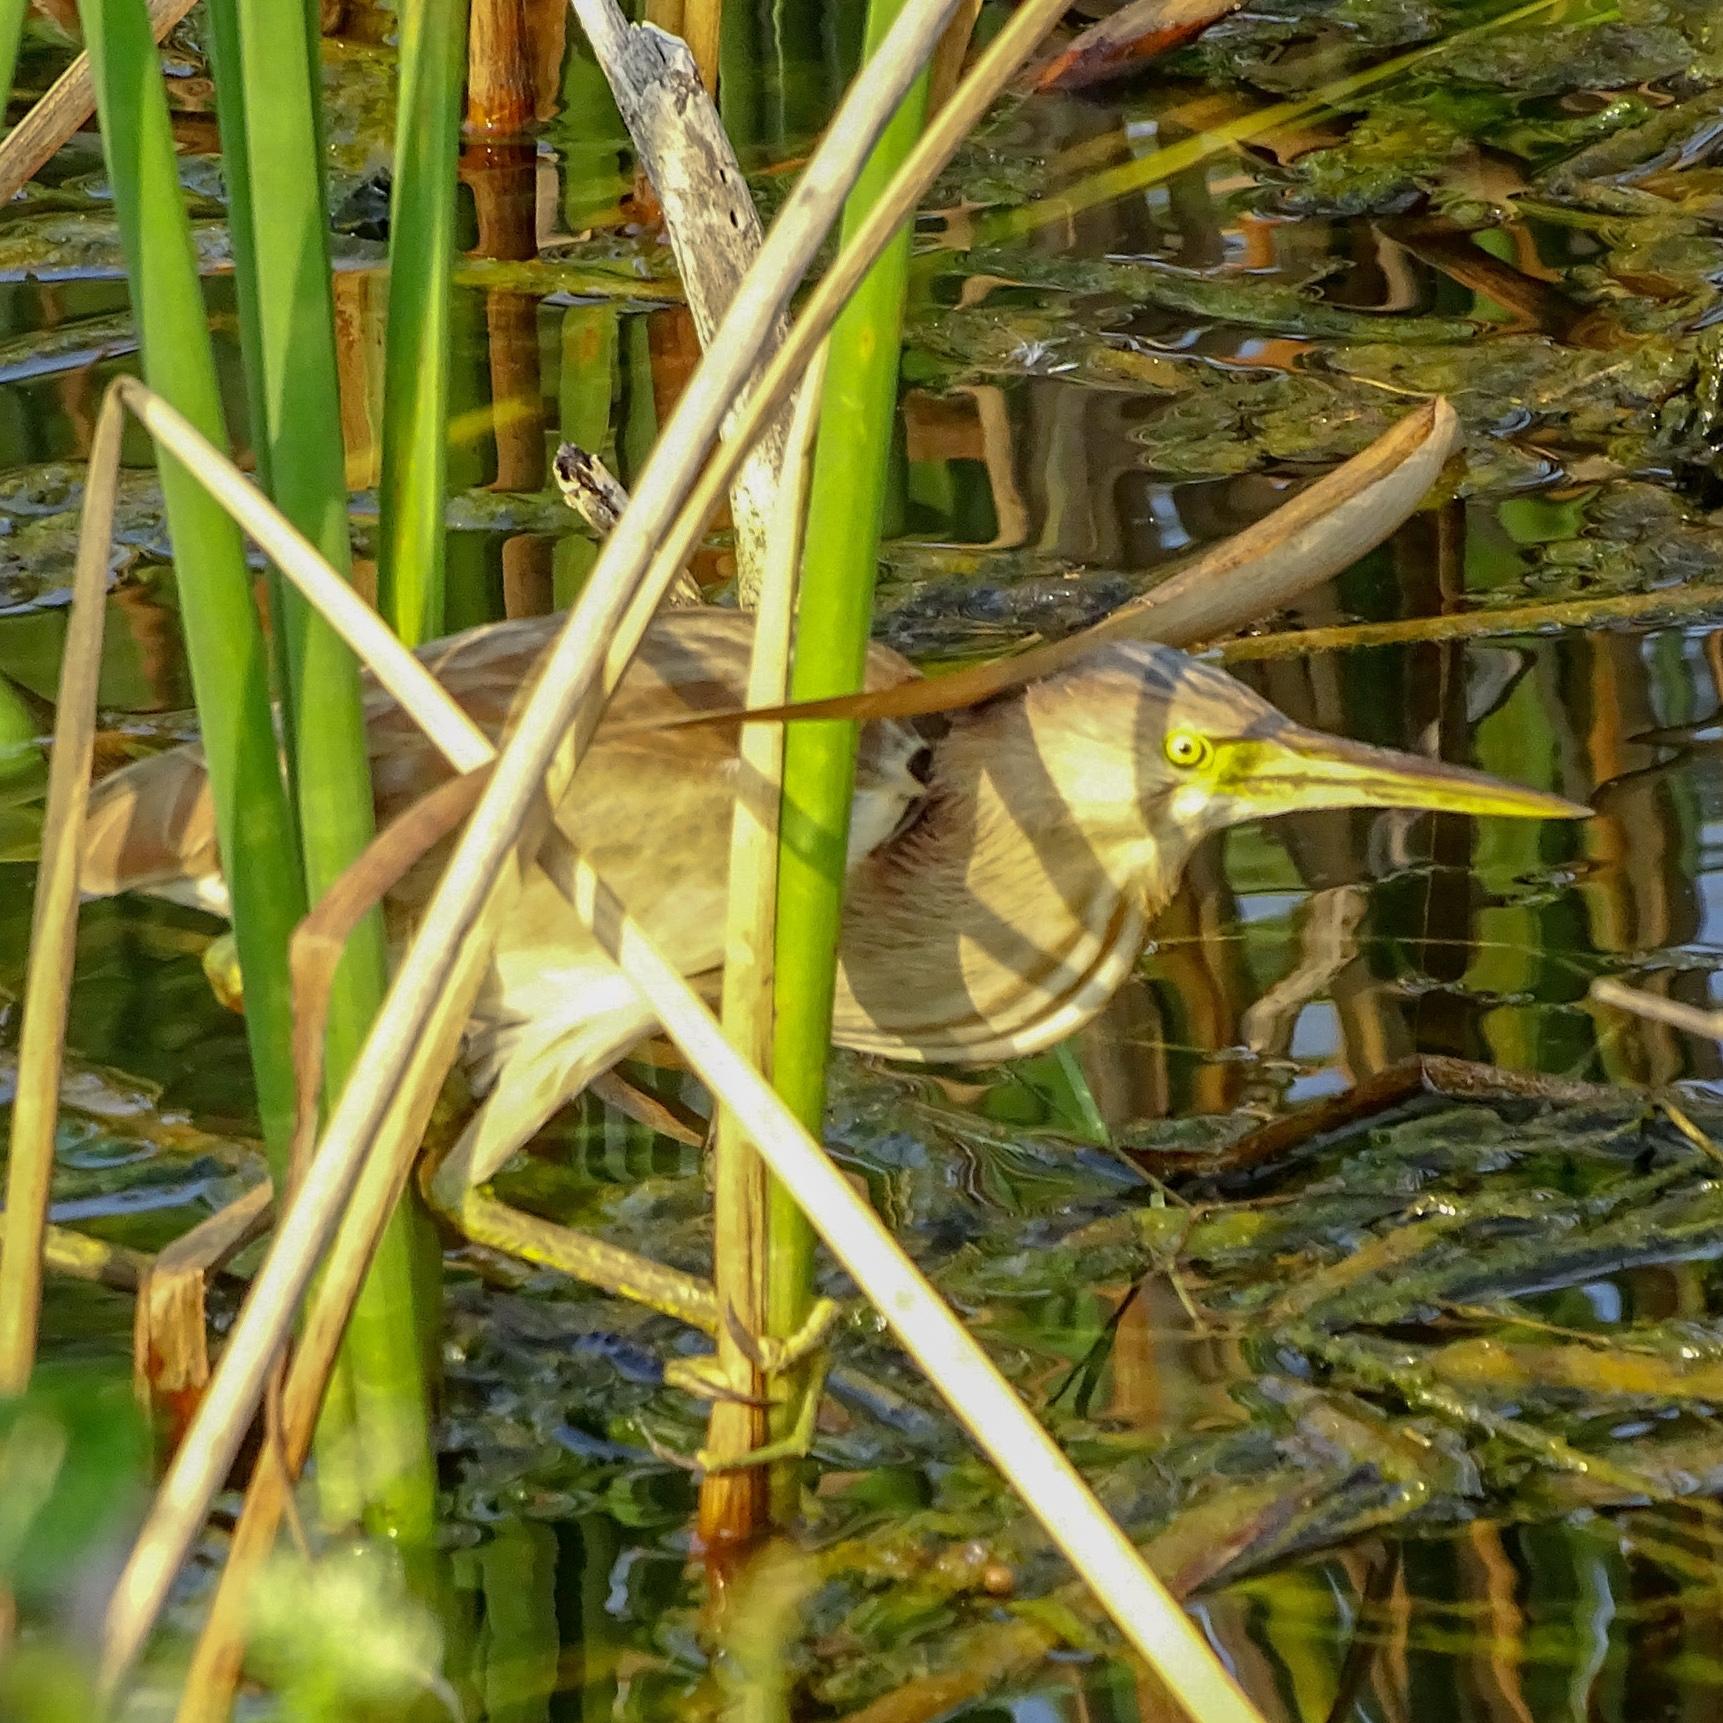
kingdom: Animalia
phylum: Chordata
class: Aves
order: Pelecaniformes
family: Ardeidae
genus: Ixobrychus
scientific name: Ixobrychus sinensis
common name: Yellow bittern
